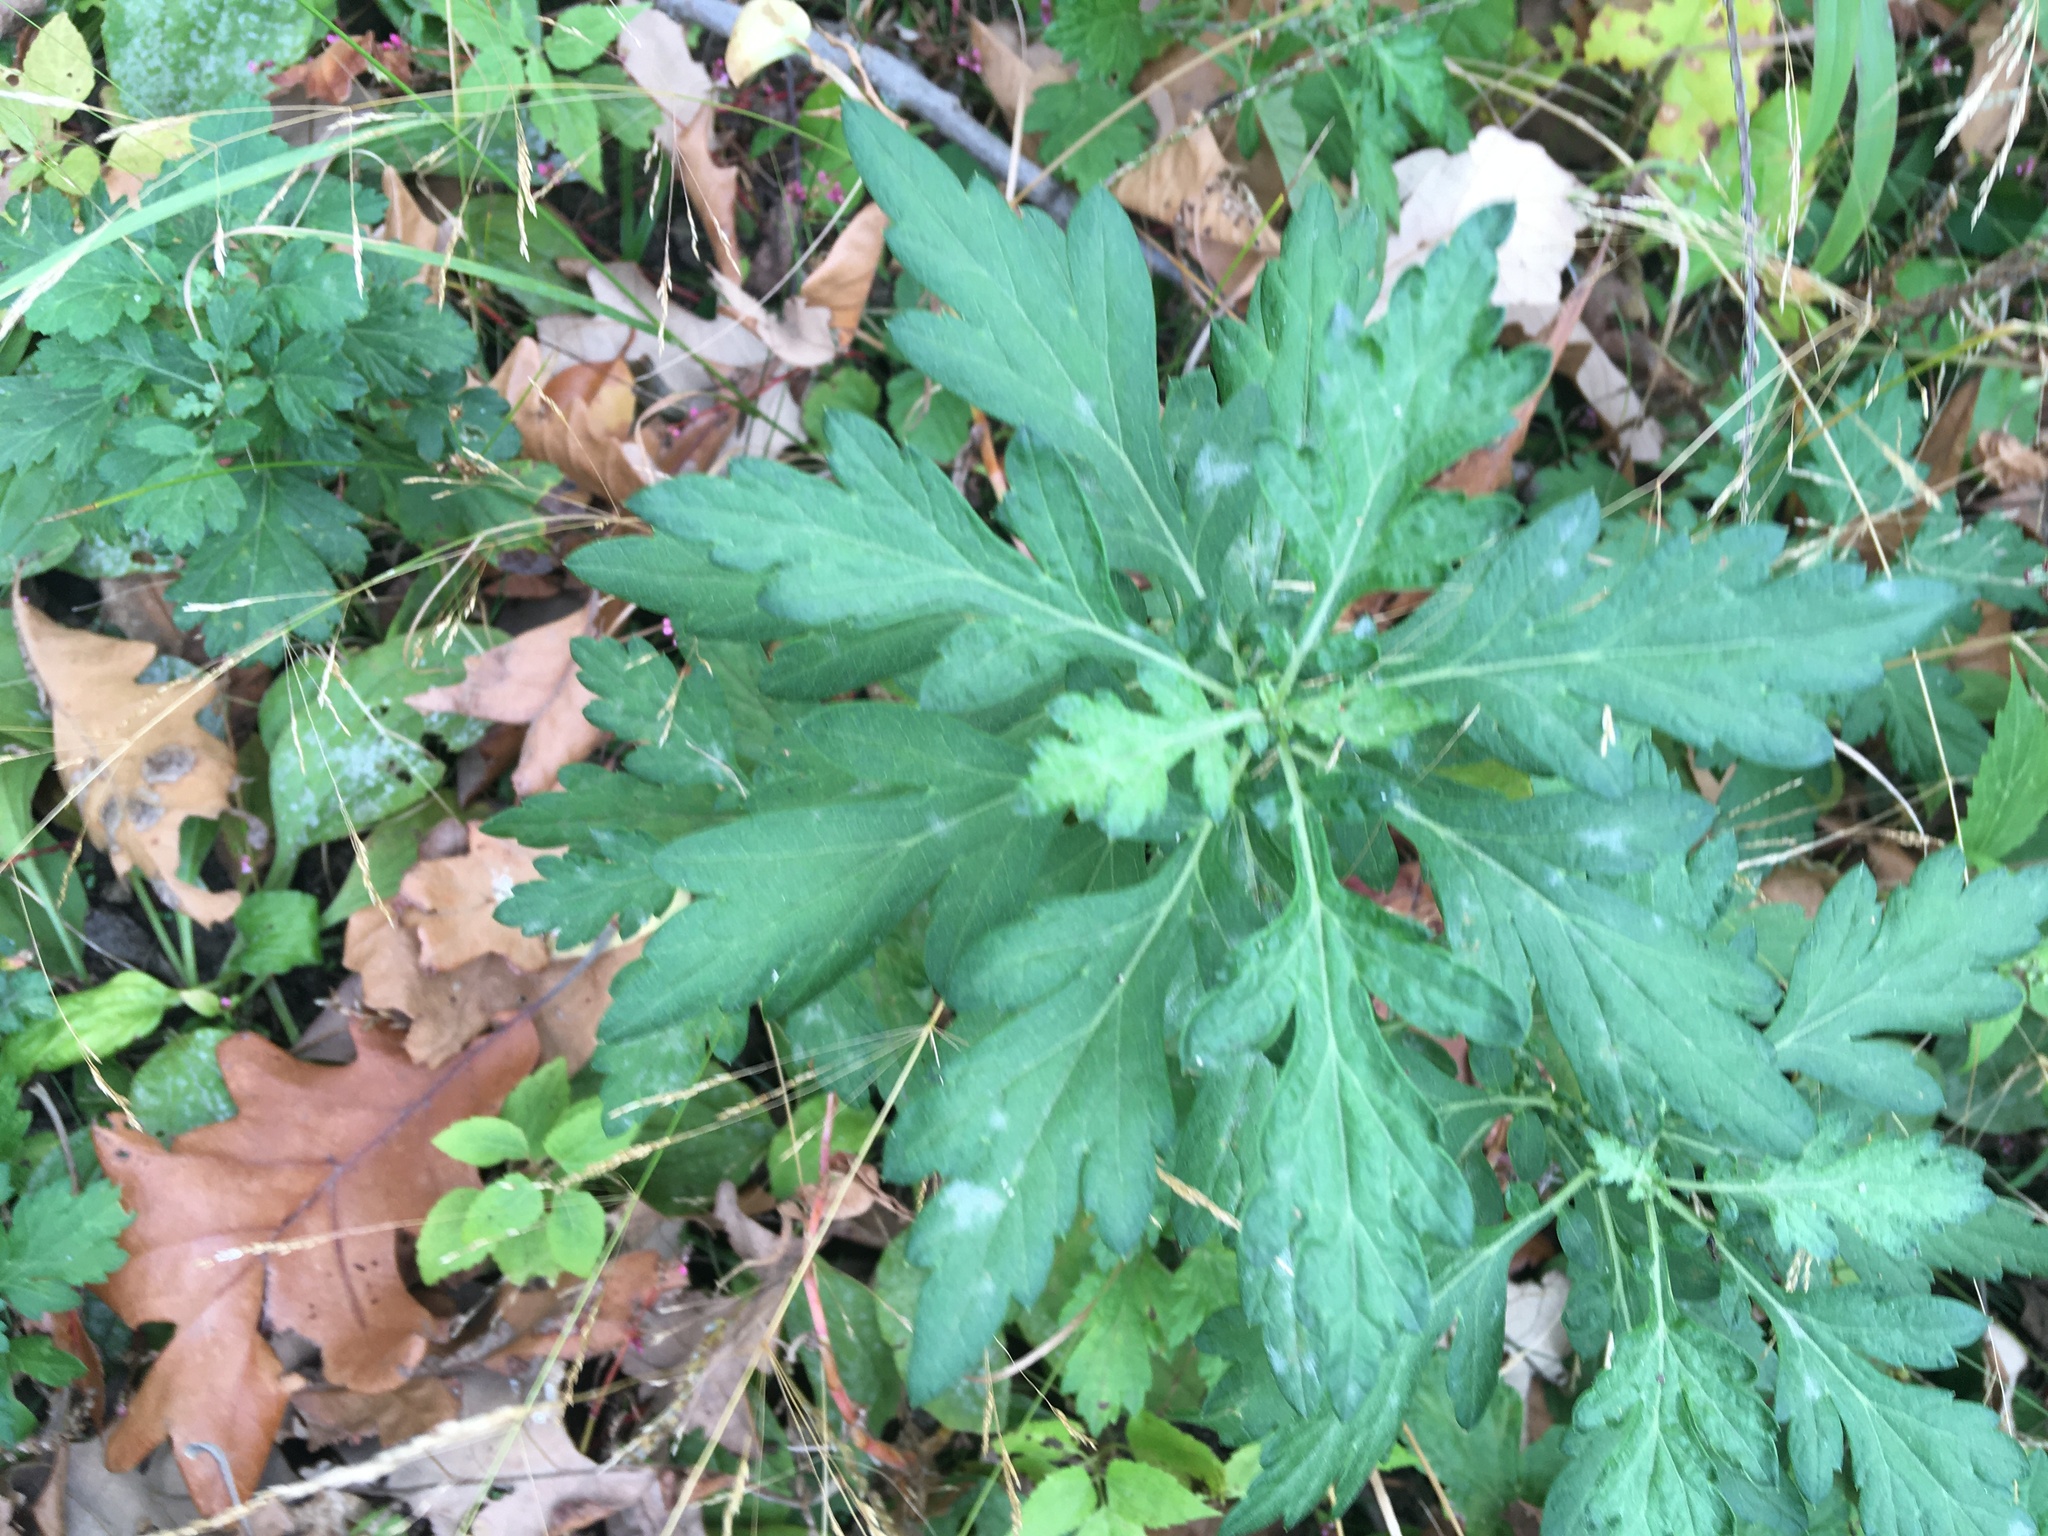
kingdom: Plantae
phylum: Tracheophyta
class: Magnoliopsida
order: Asterales
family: Asteraceae
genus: Artemisia
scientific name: Artemisia vulgaris
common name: Mugwort
